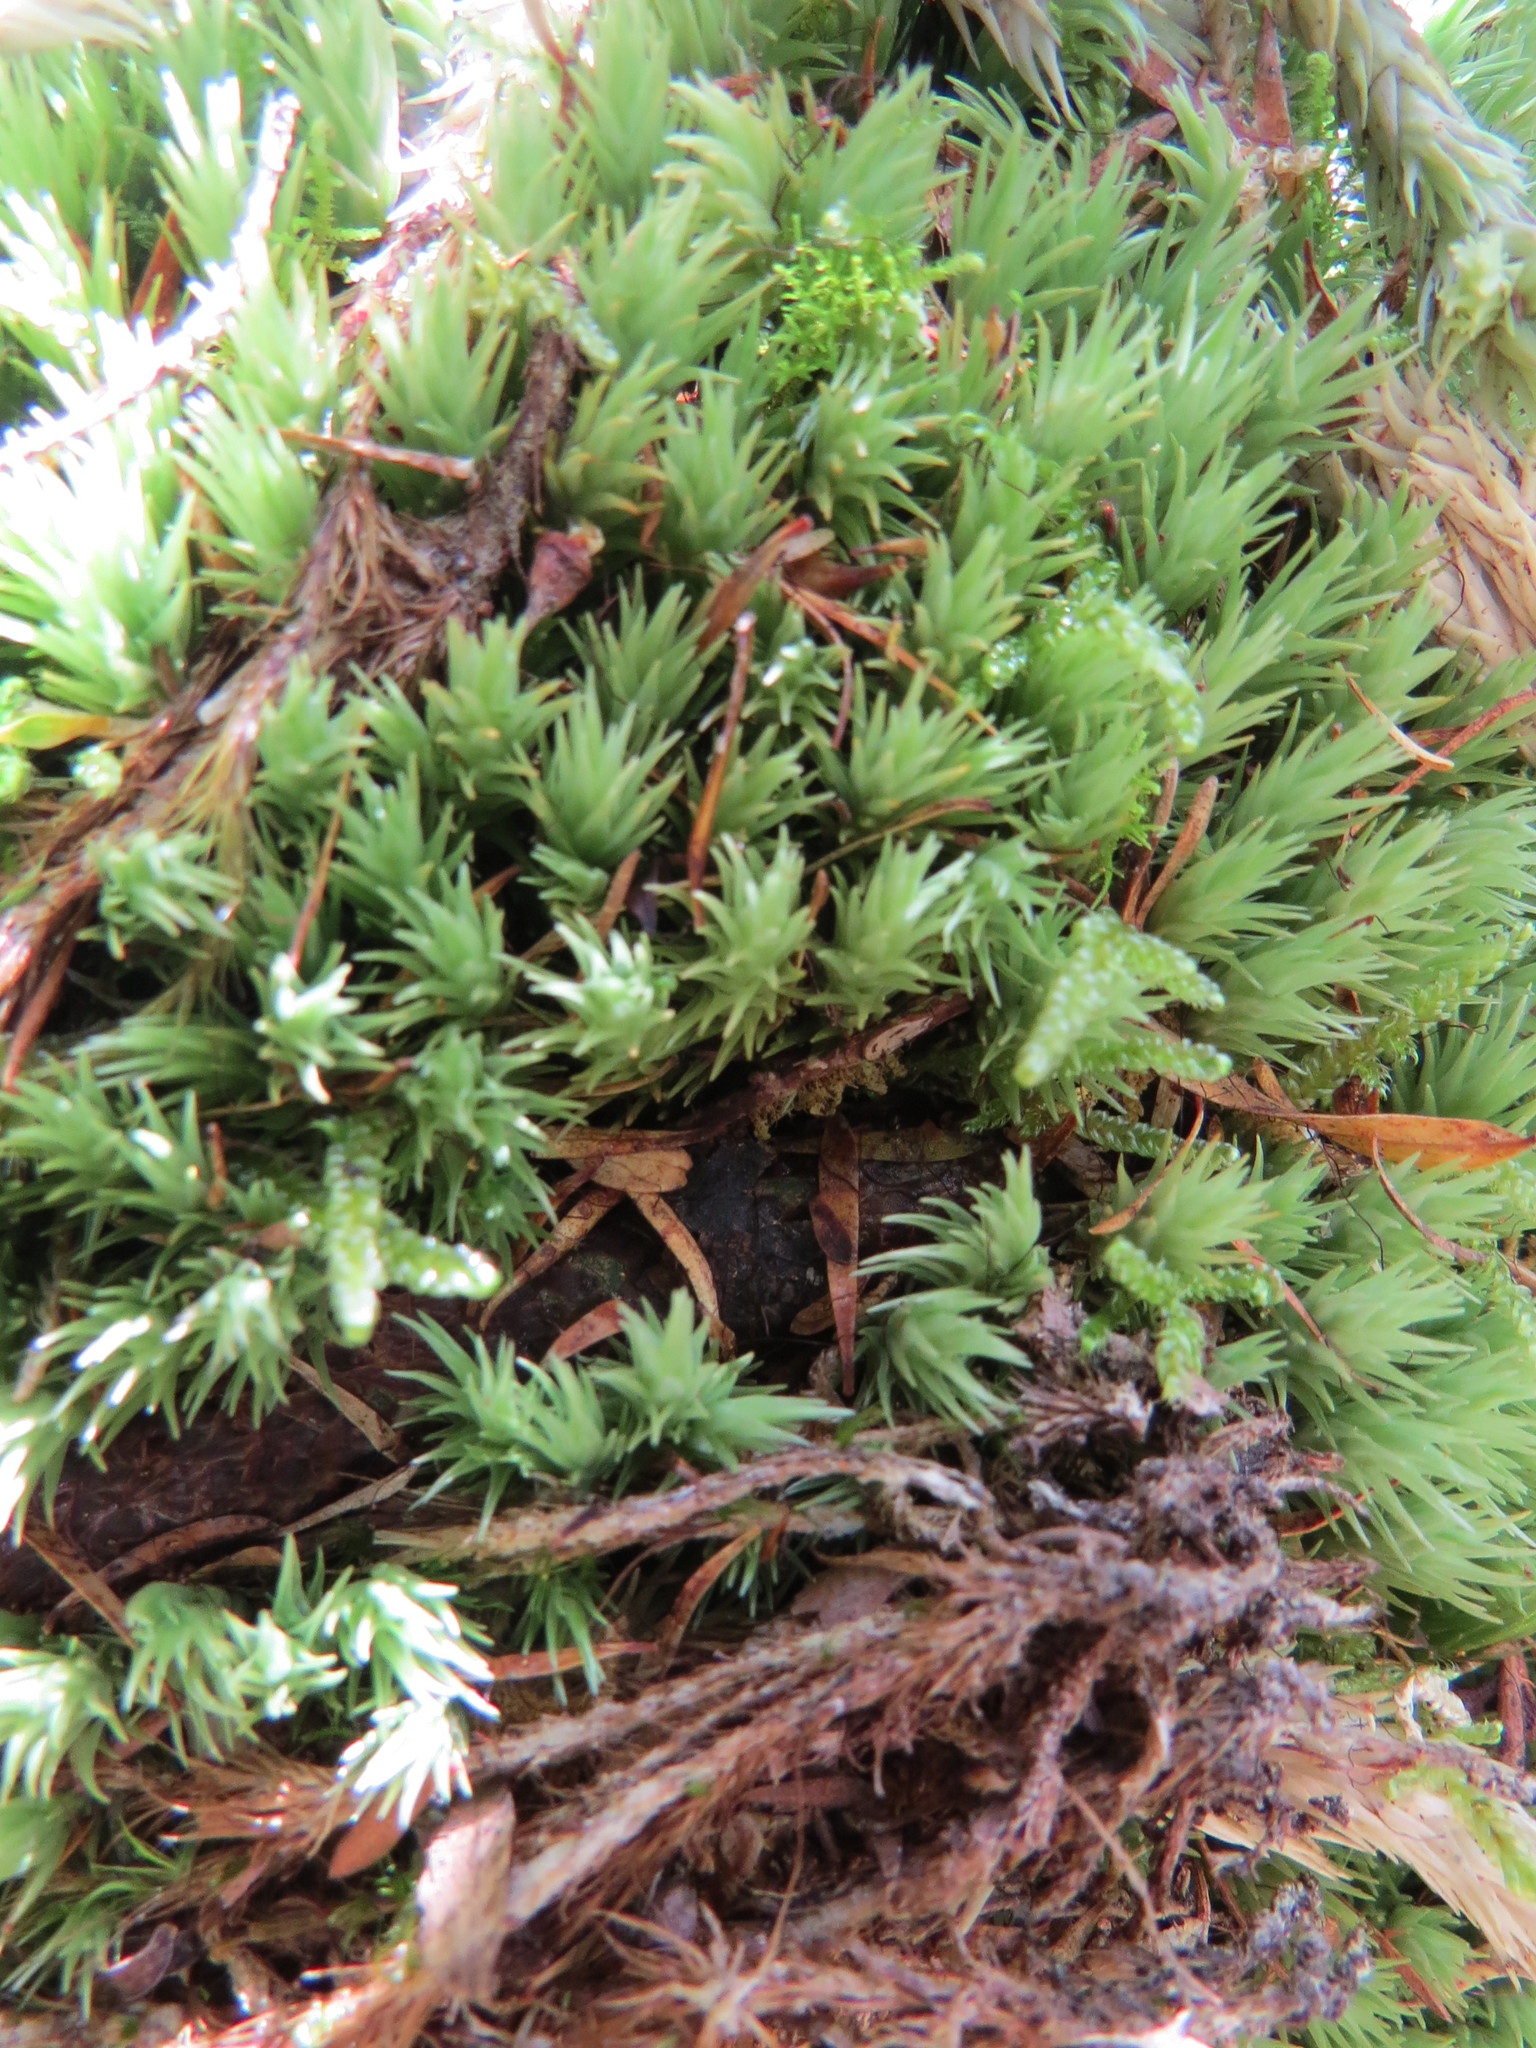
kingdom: Plantae
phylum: Bryophyta
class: Bryopsida
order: Dicranales
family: Leucobryaceae
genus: Leucobryum
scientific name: Leucobryum javense
